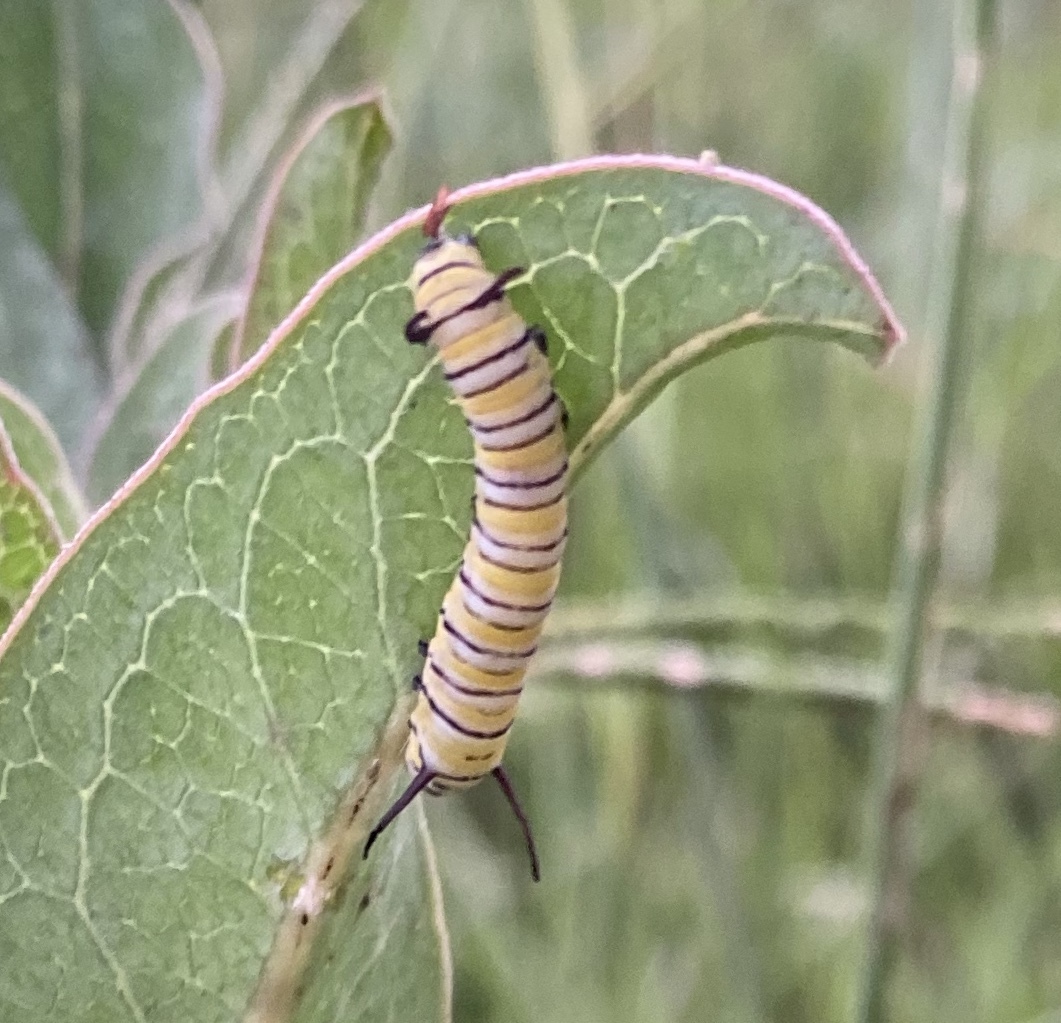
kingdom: Animalia
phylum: Arthropoda
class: Insecta
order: Lepidoptera
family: Nymphalidae
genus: Danaus
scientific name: Danaus plexippus
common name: Monarch
